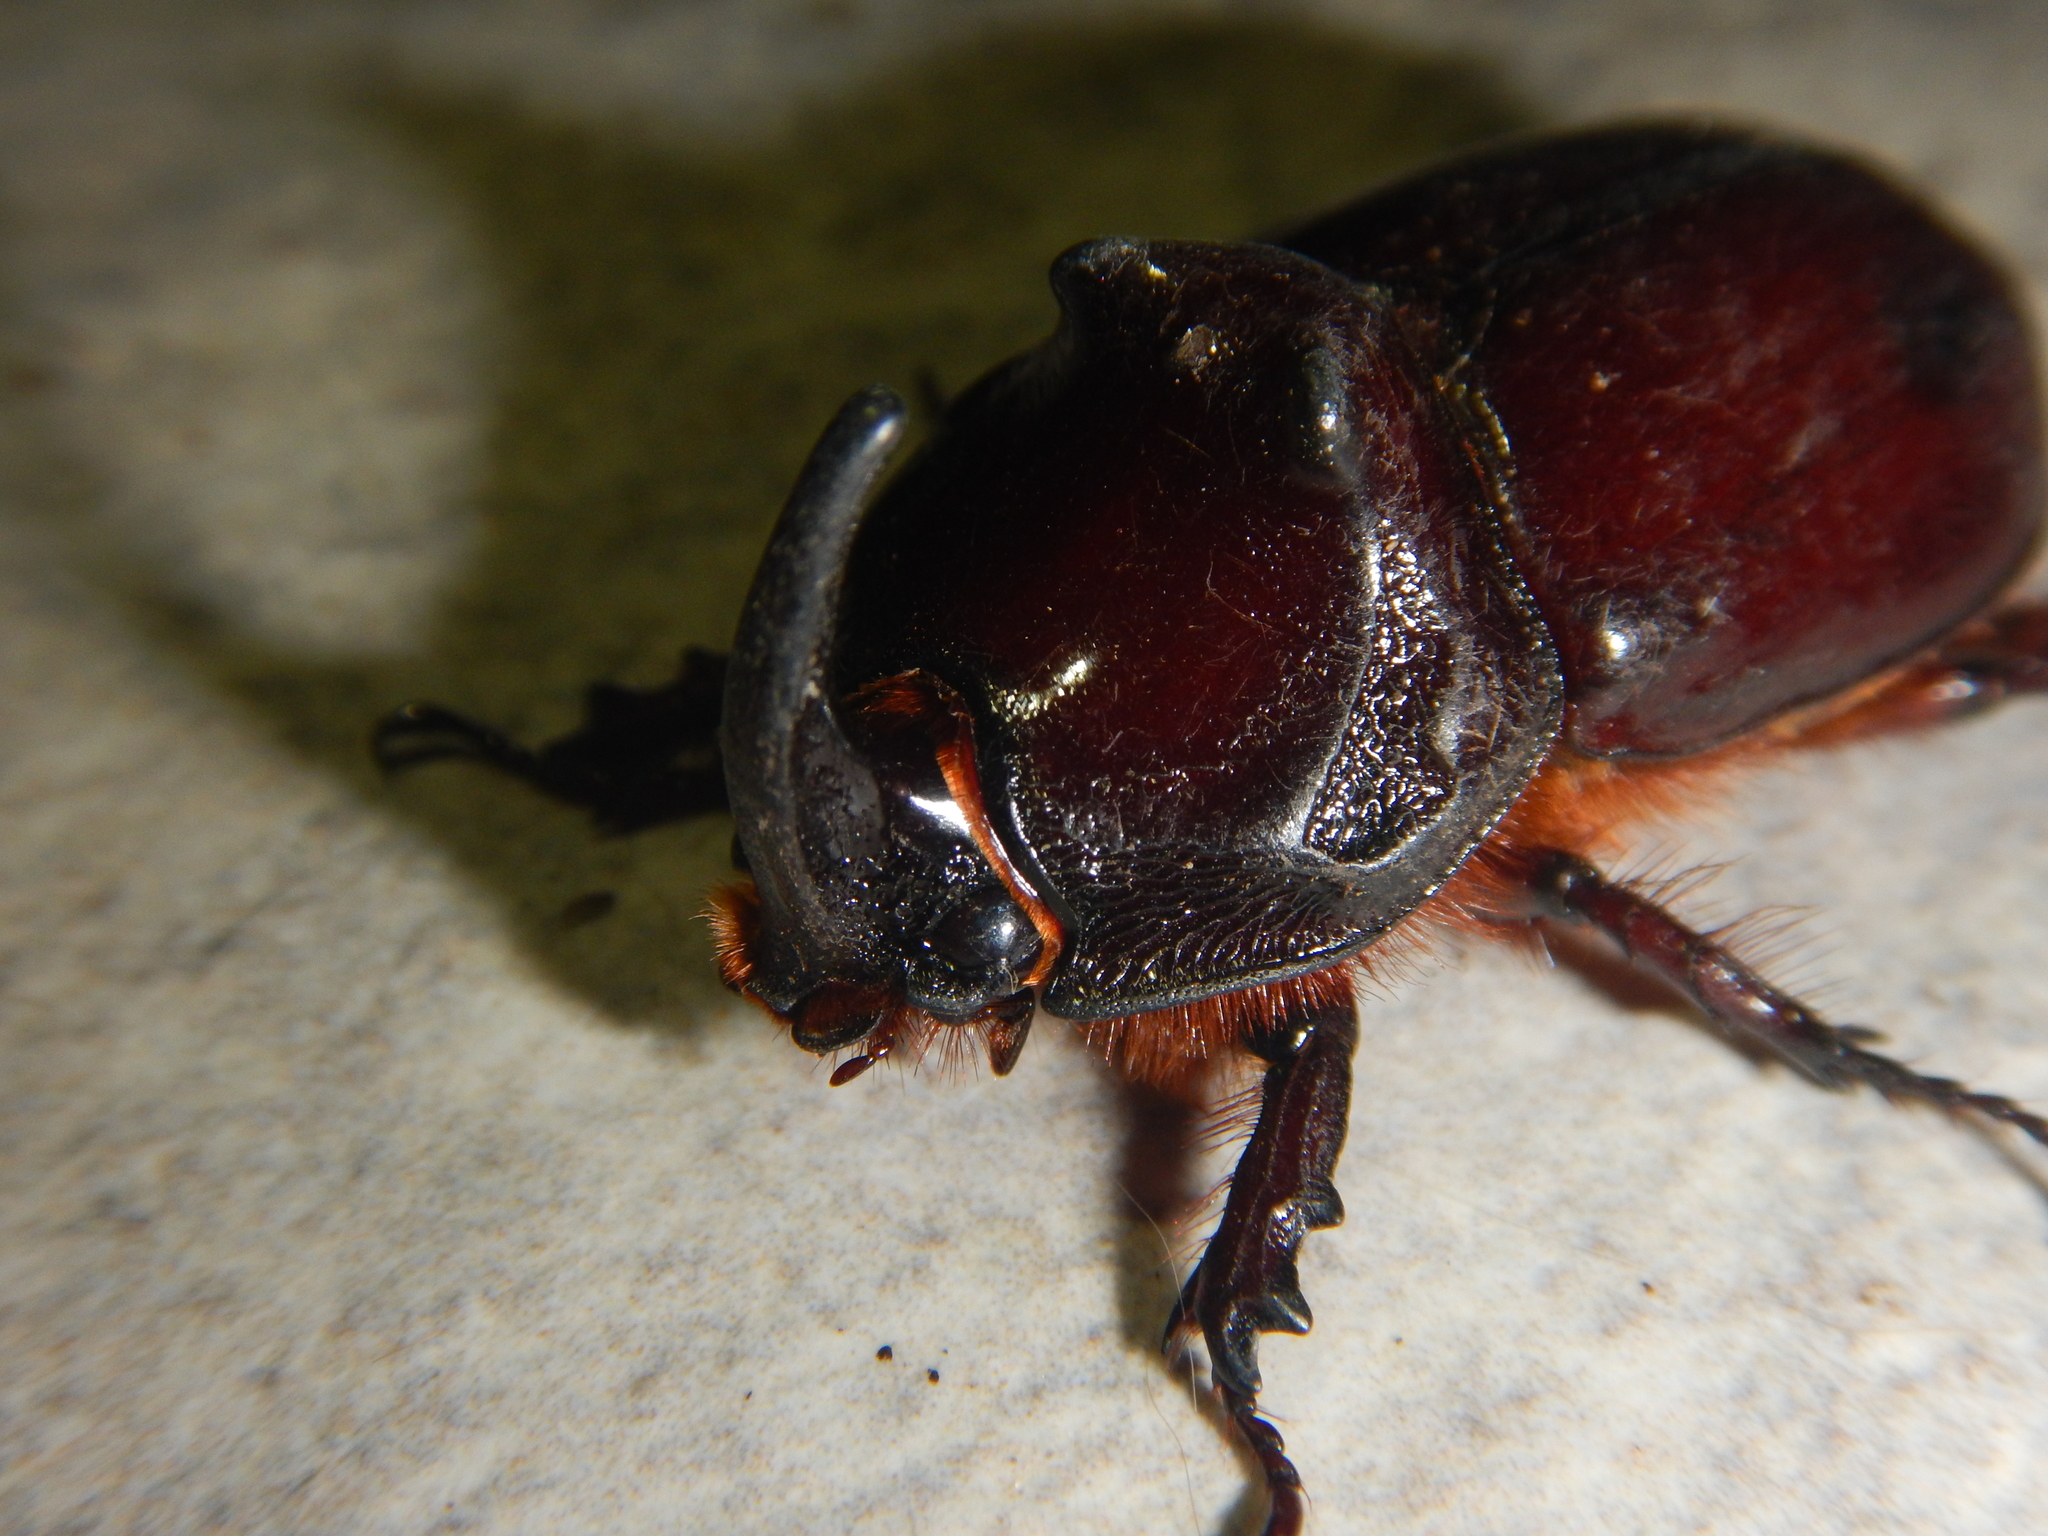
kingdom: Animalia
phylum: Arthropoda
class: Insecta
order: Coleoptera
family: Scarabaeidae
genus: Oryctes
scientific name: Oryctes nasicornis
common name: European rhinoceros beetle
